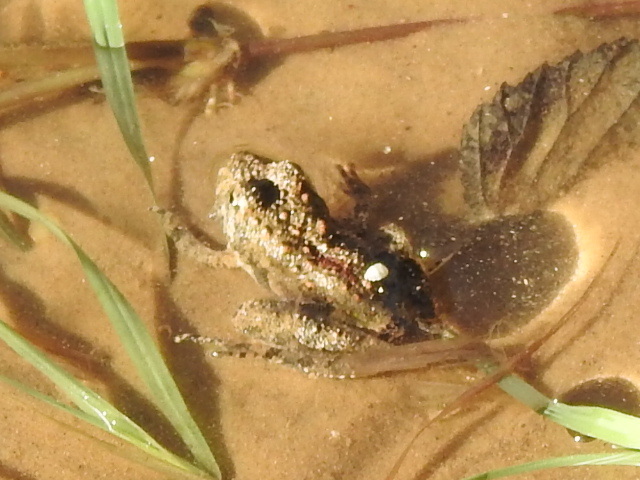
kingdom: Animalia
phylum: Chordata
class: Amphibia
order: Anura
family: Hylidae
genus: Acris
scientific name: Acris blanchardi
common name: Blanchard's cricket frog
